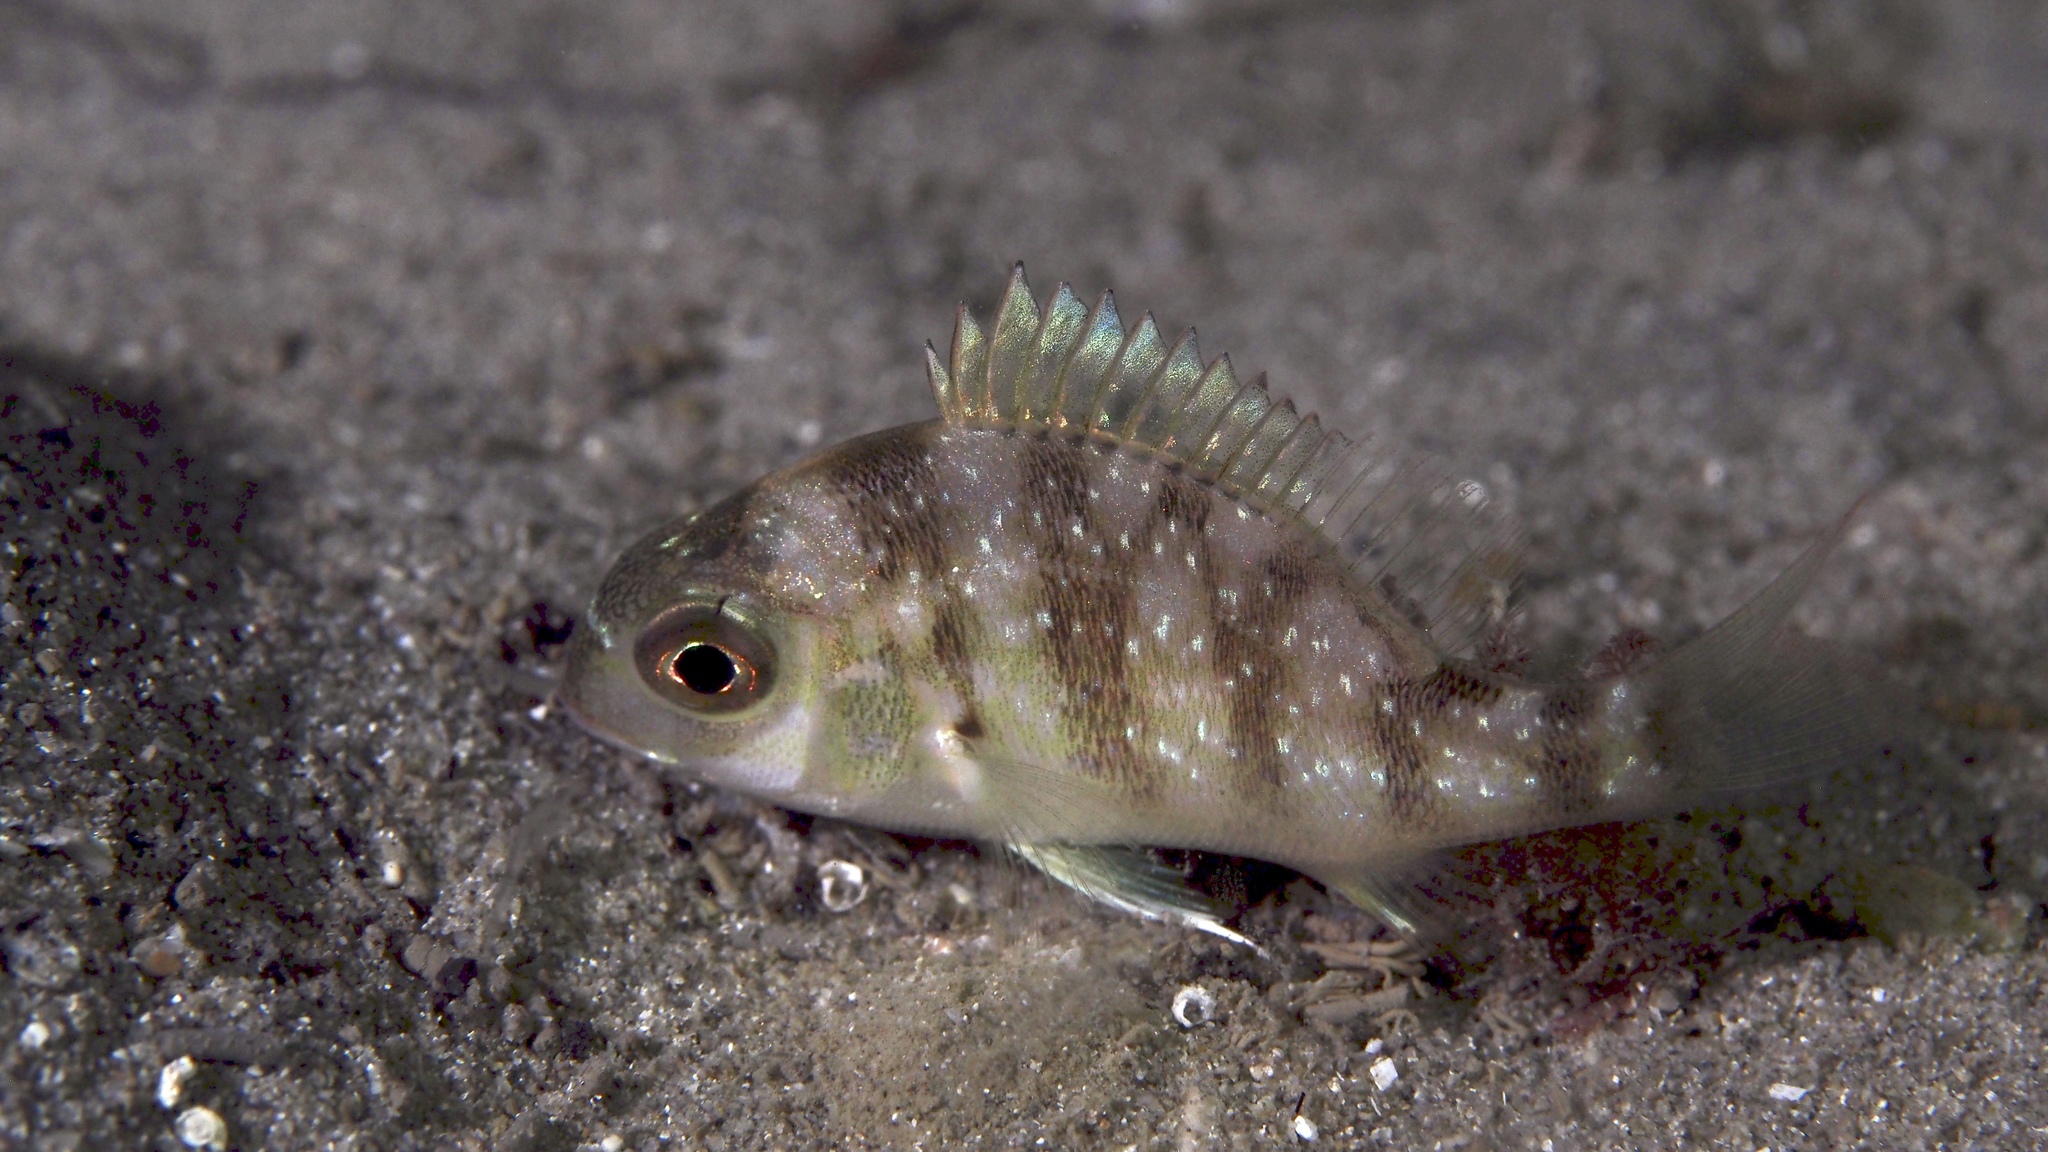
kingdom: Animalia
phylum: Chordata
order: Perciformes
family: Sparidae
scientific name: Sparidae
